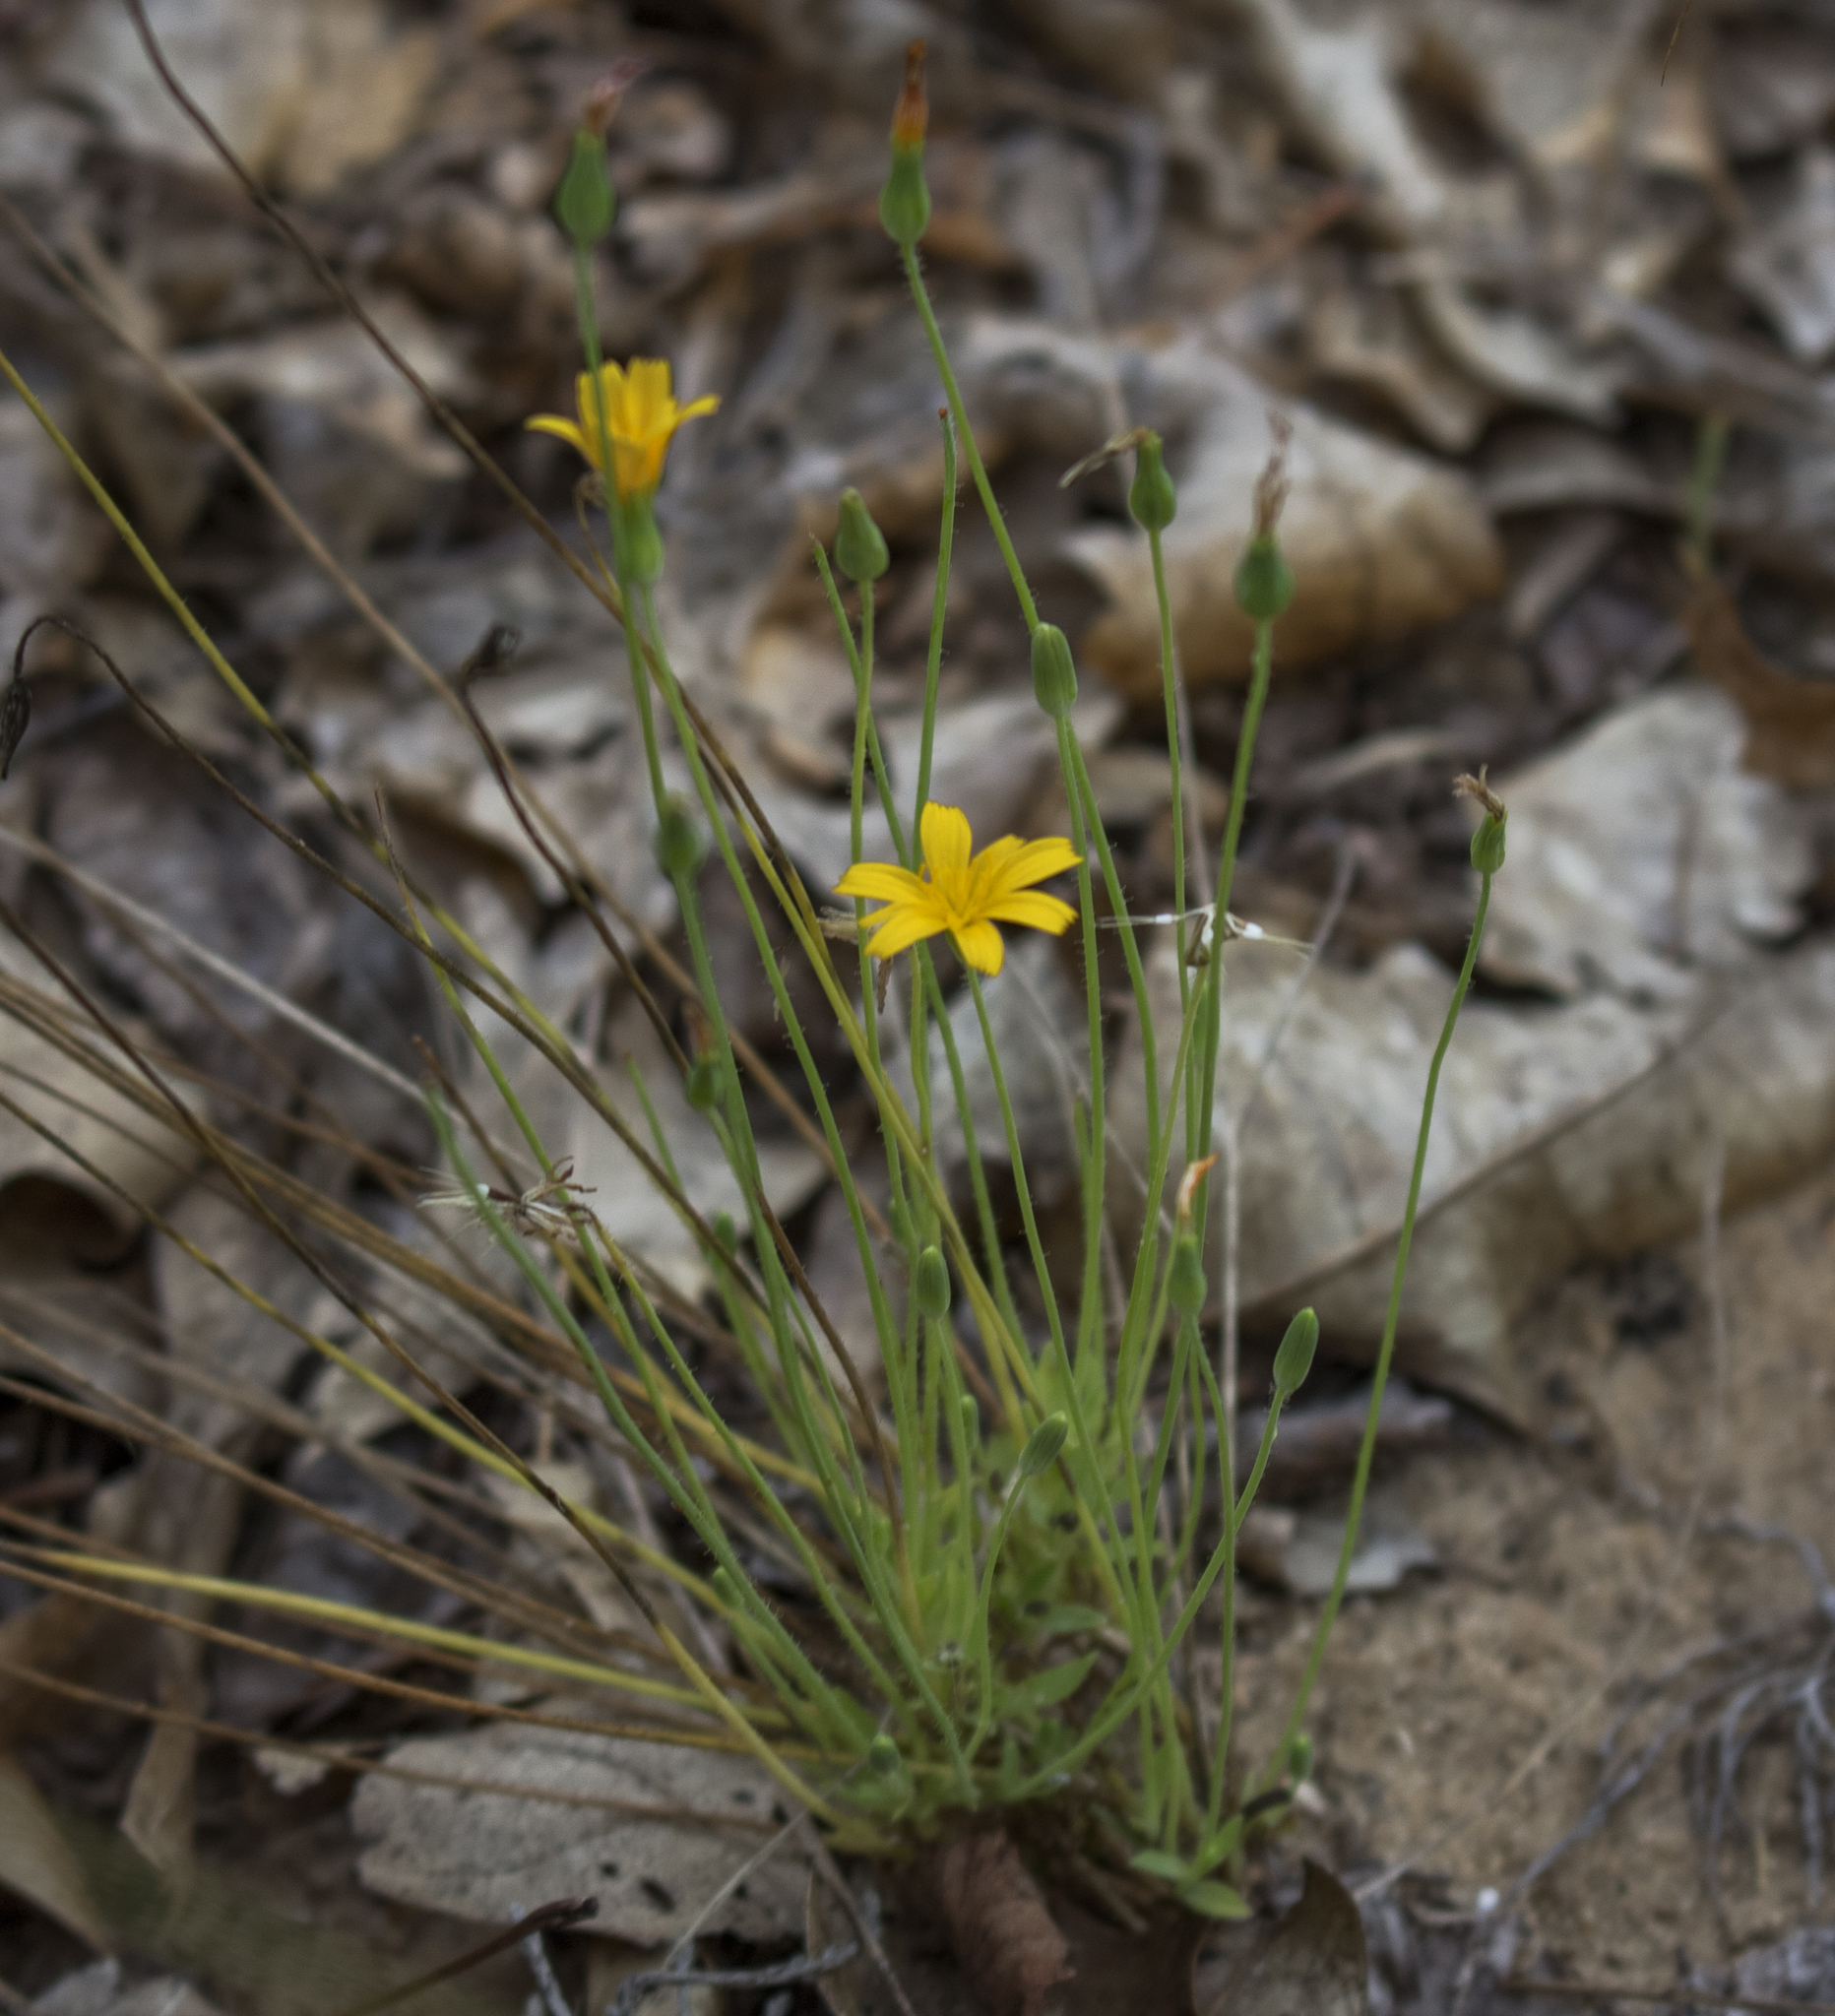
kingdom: Plantae
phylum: Tracheophyta
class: Magnoliopsida
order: Asterales
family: Asteraceae
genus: Krigia
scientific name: Krigia virginica
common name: Virginia dwarf-dandelion
